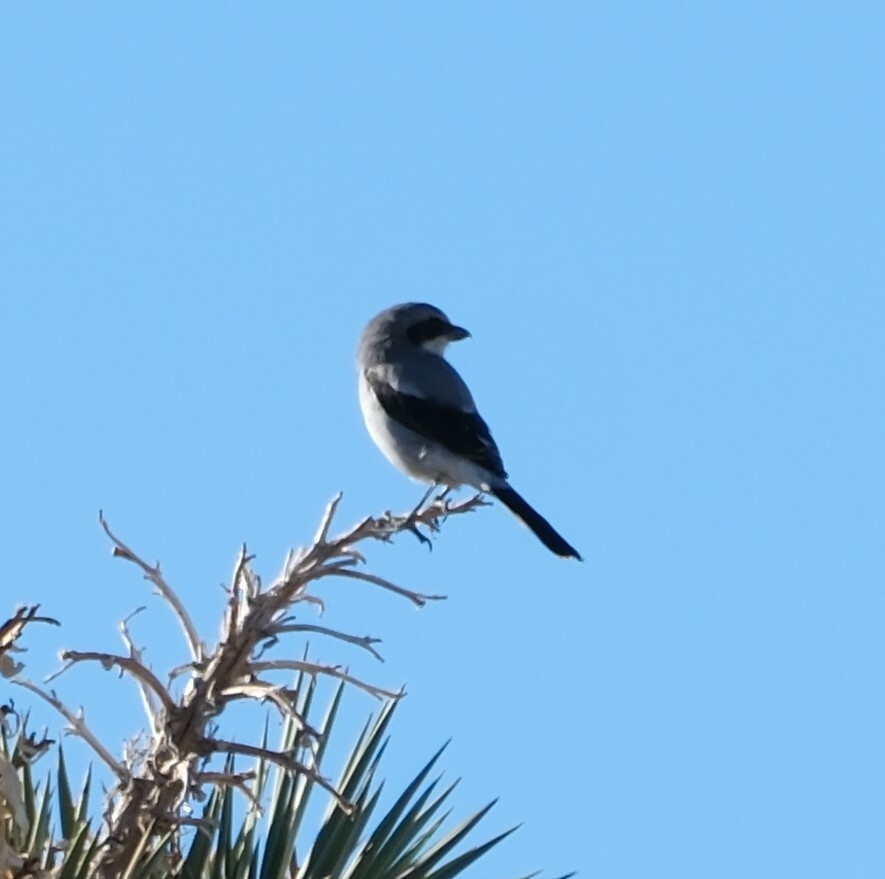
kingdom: Animalia
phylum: Chordata
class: Aves
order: Passeriformes
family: Laniidae
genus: Lanius
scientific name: Lanius ludovicianus
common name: Loggerhead shrike
